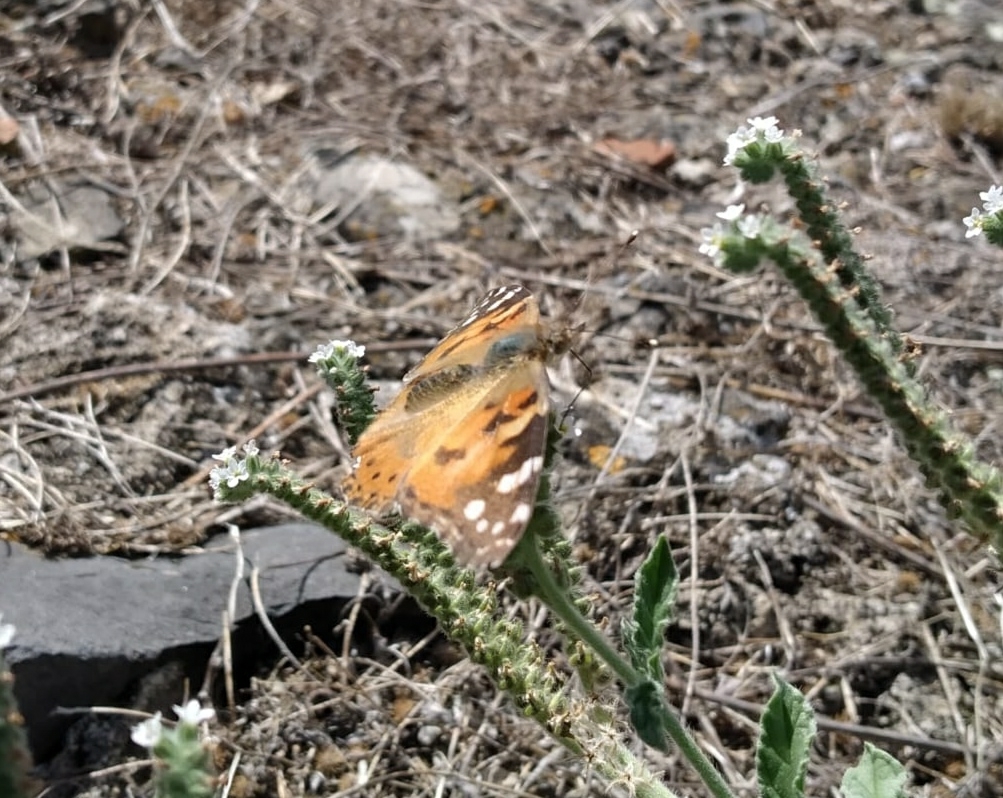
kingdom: Animalia
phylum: Arthropoda
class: Insecta
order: Lepidoptera
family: Nymphalidae
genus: Vanessa
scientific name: Vanessa cardui
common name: Painted lady
